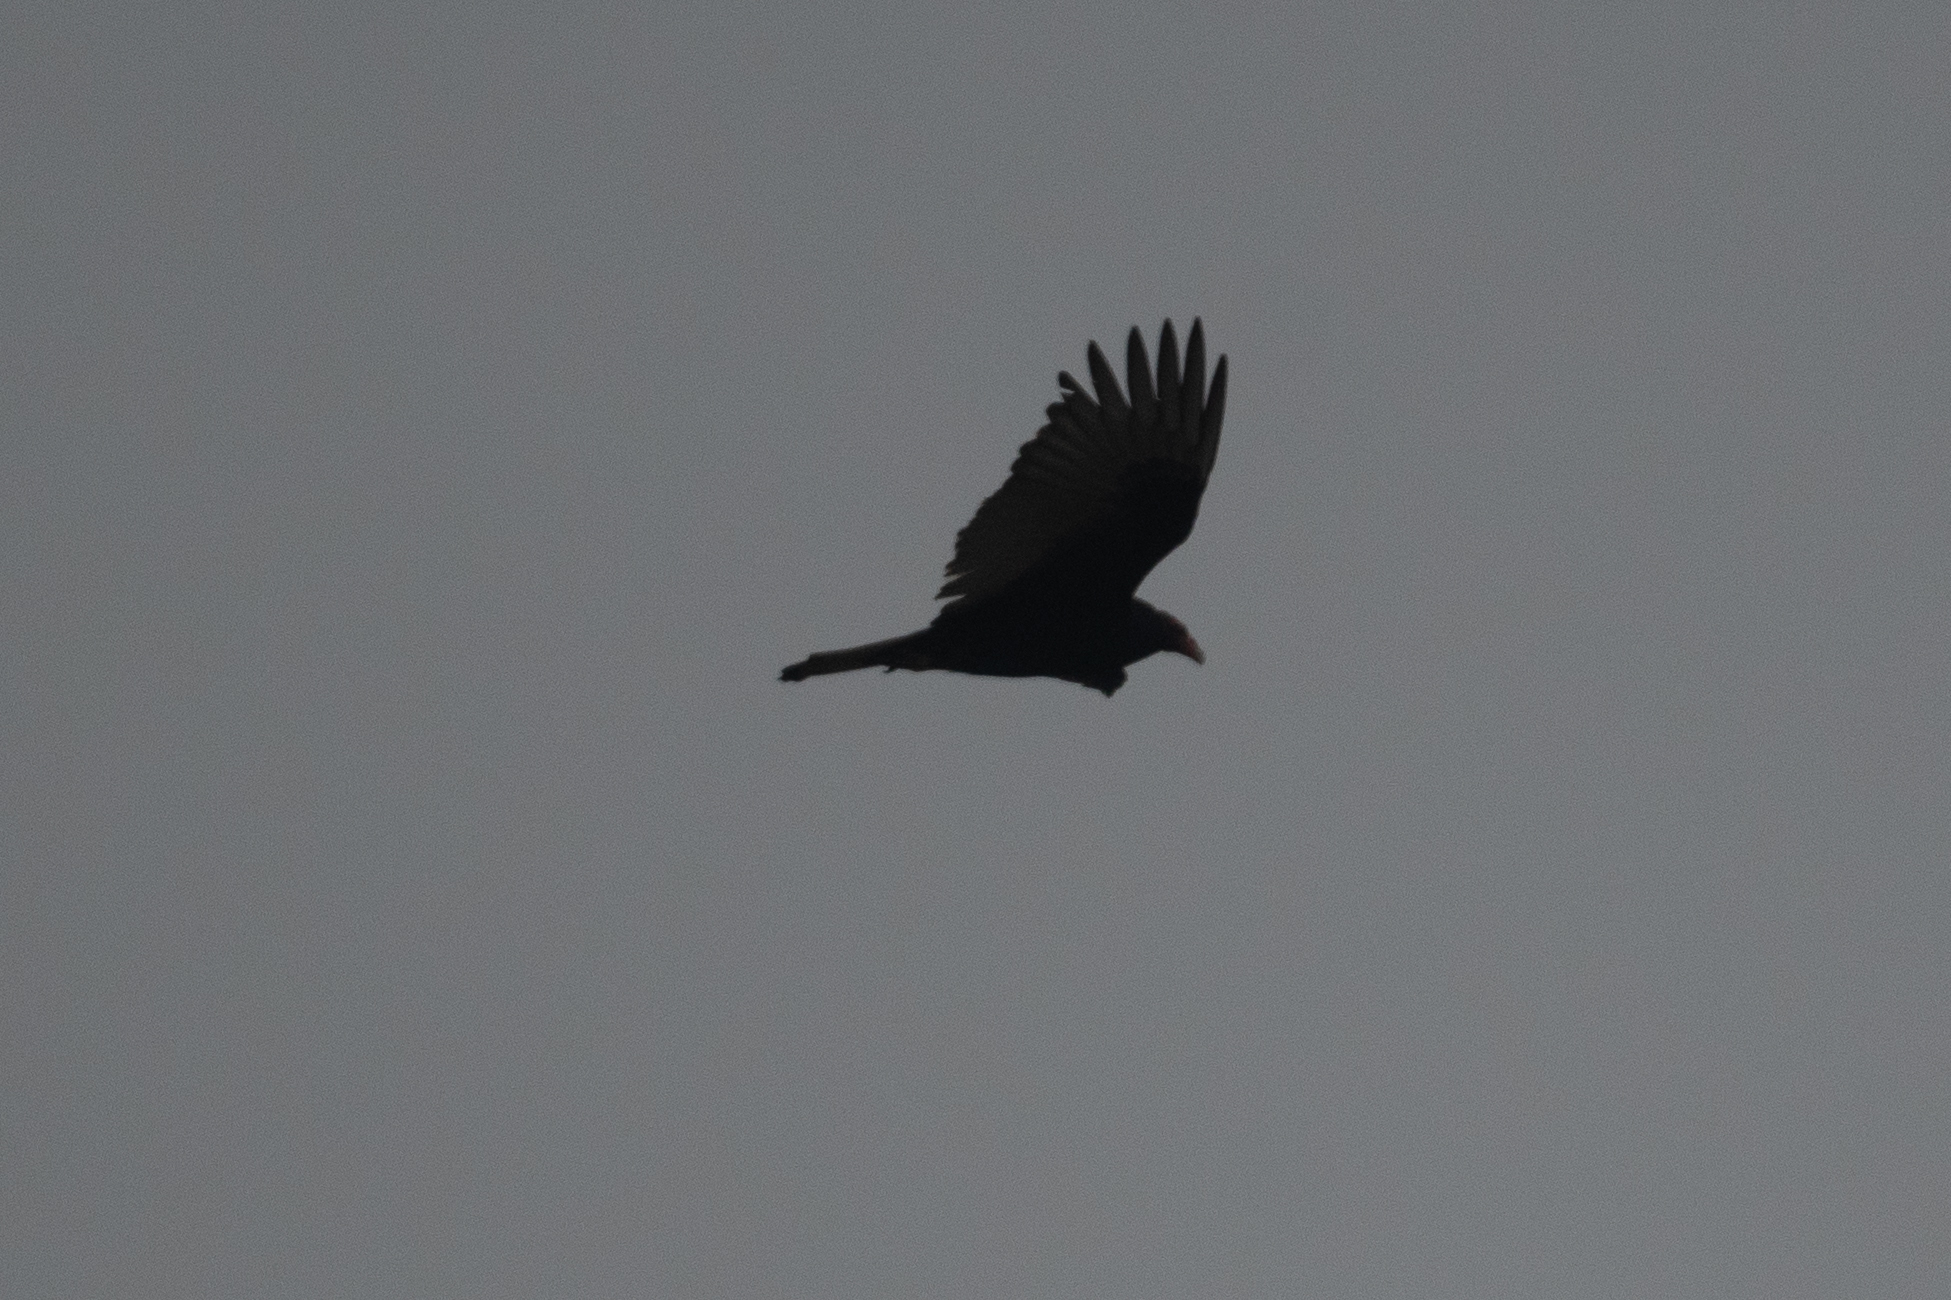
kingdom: Animalia
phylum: Chordata
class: Aves
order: Accipitriformes
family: Cathartidae
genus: Cathartes
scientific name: Cathartes aura
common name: Turkey vulture
